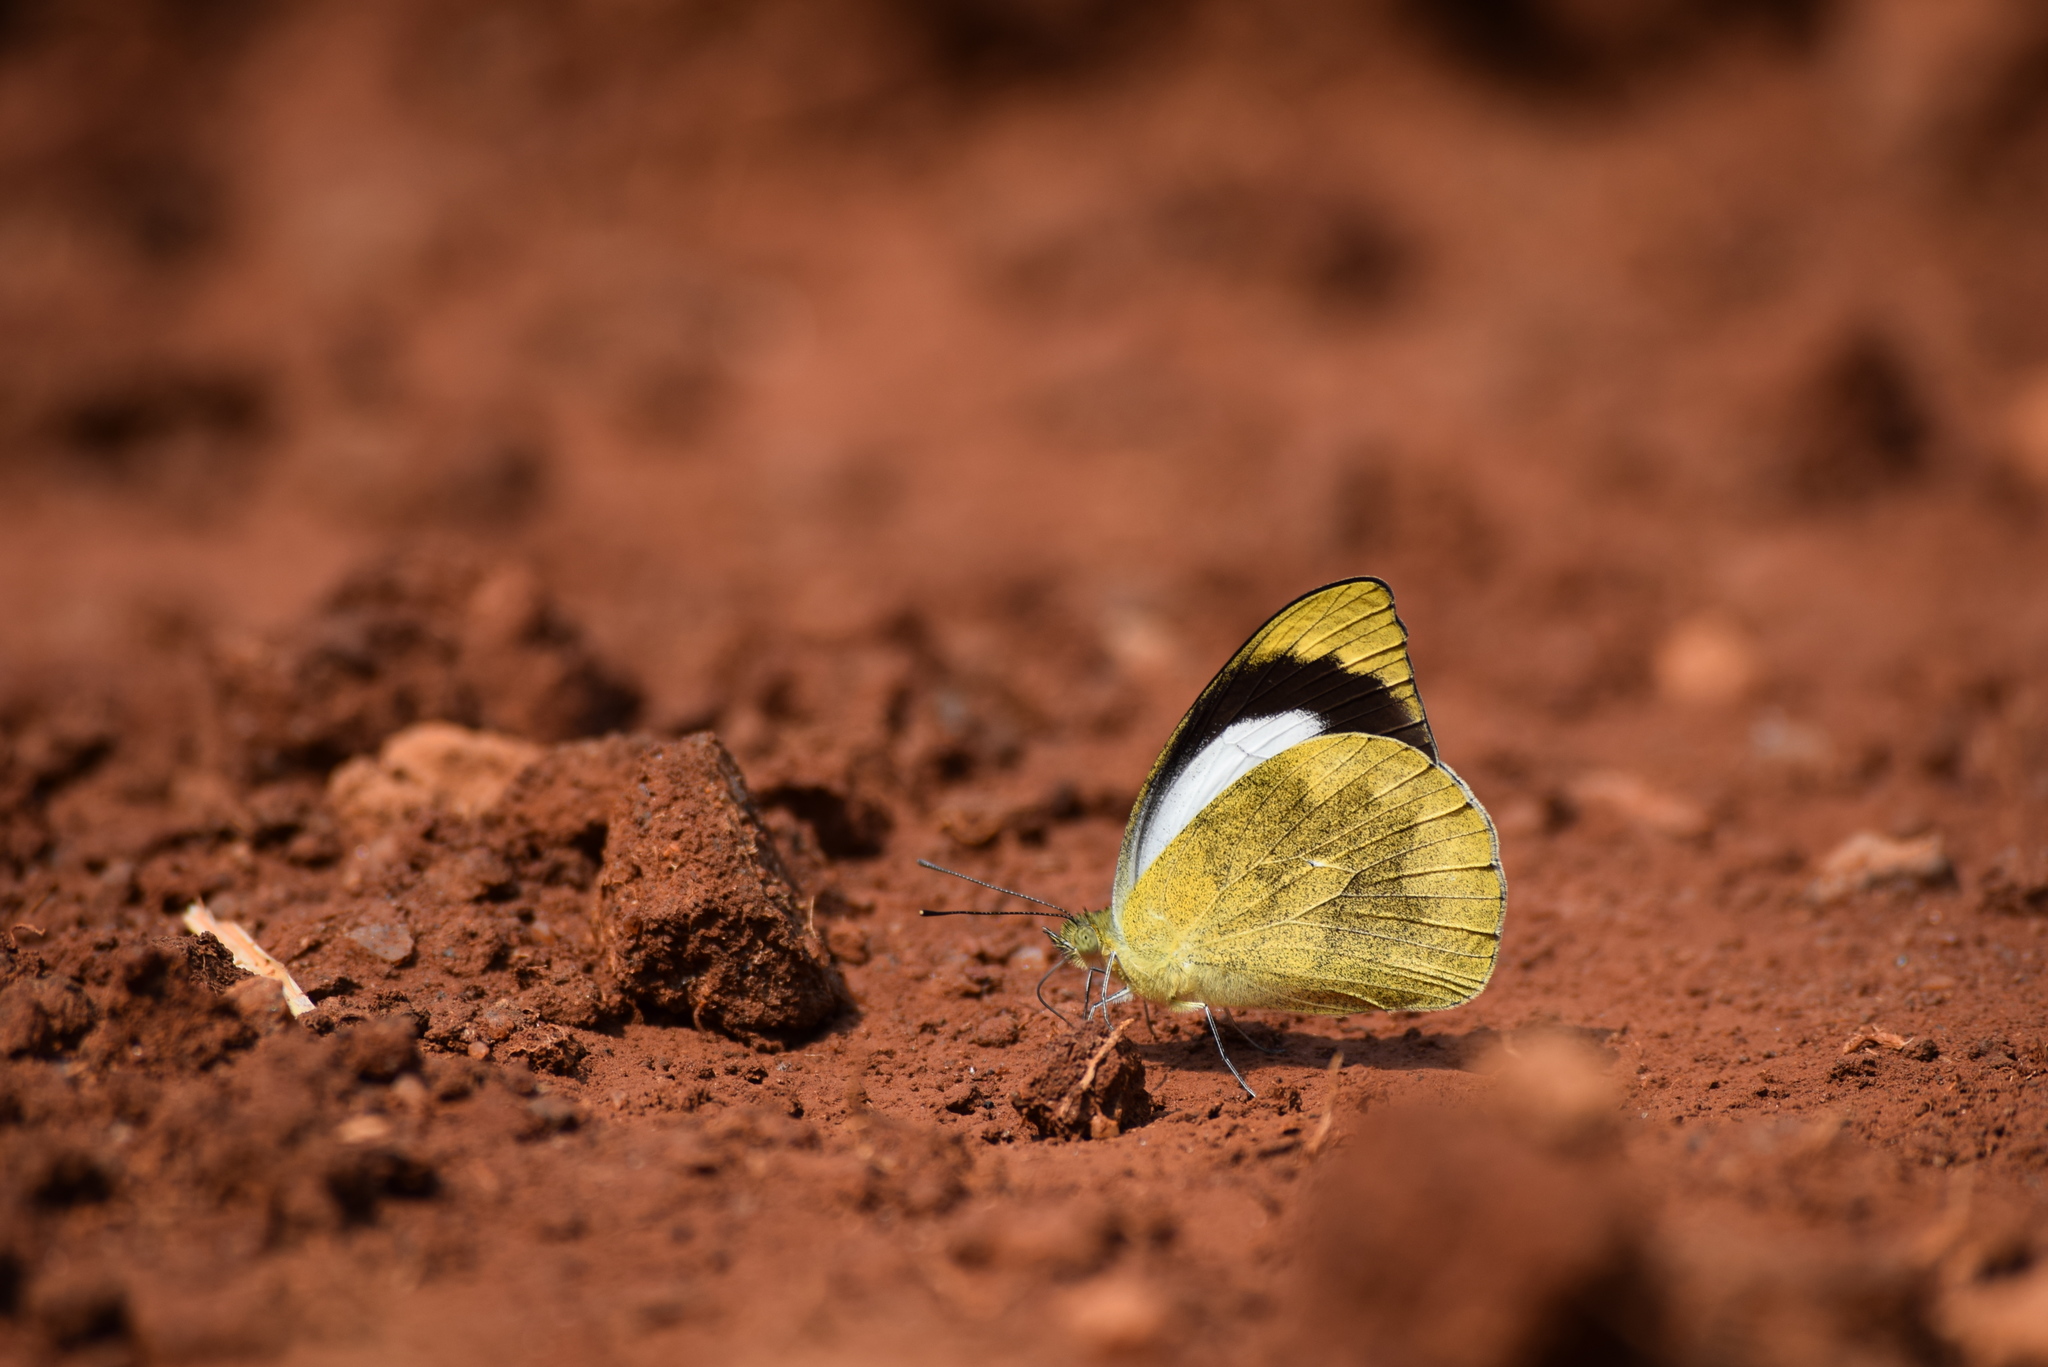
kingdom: Animalia
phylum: Arthropoda
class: Insecta
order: Lepidoptera
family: Pieridae
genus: Appias
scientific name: Appias indra
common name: Plain puffin
